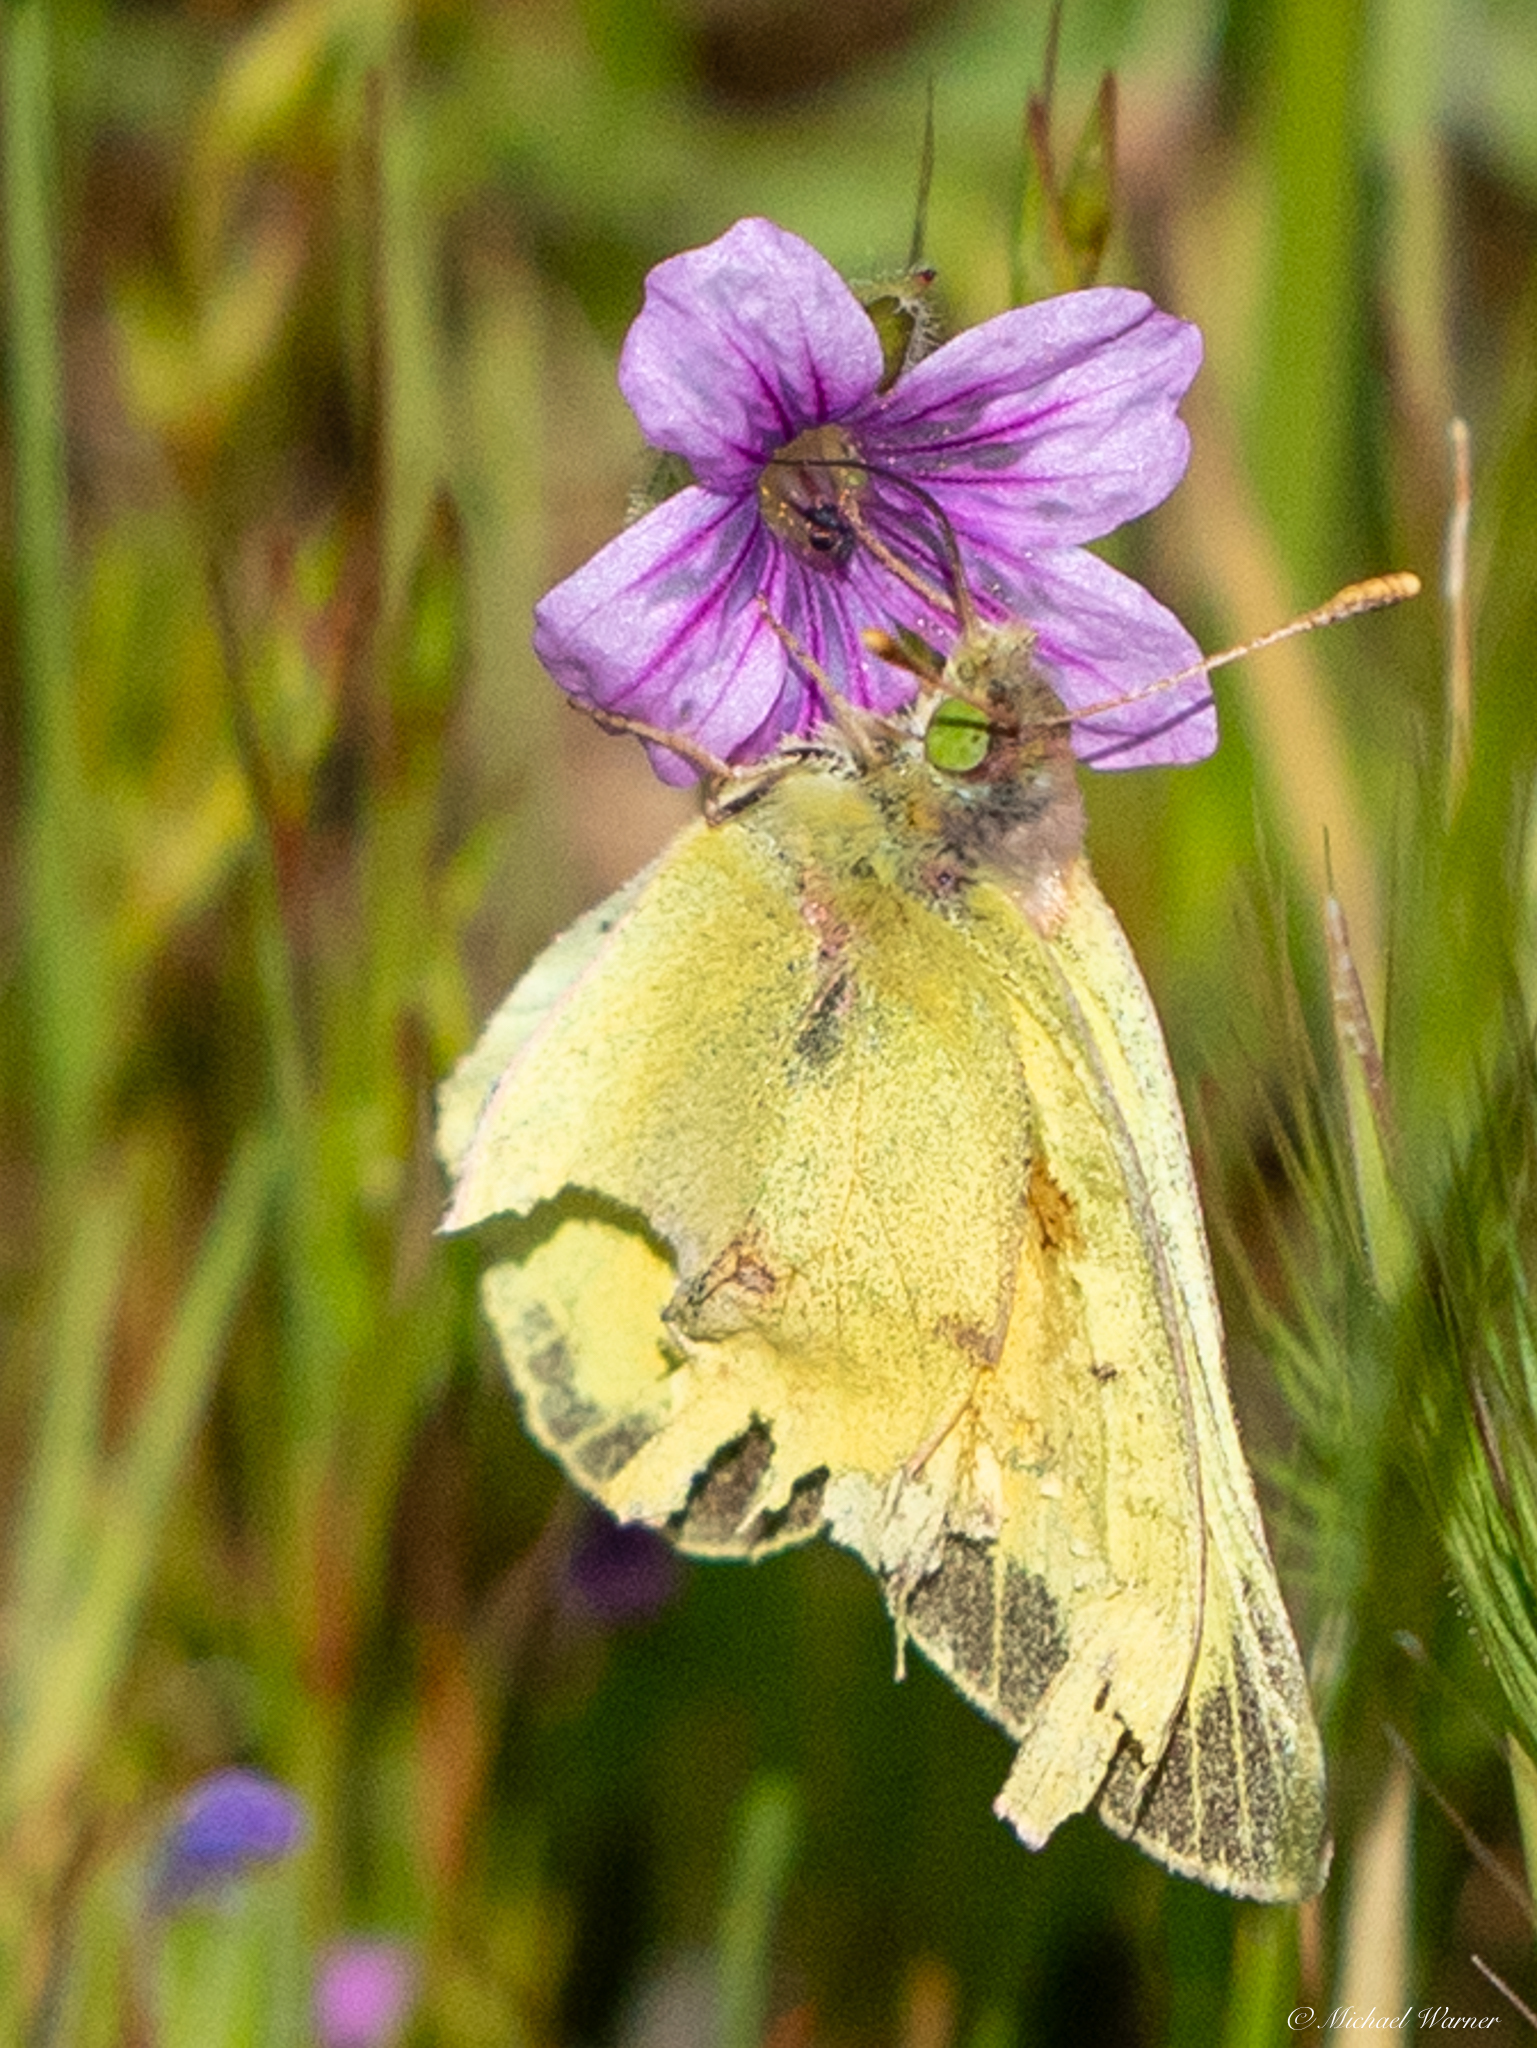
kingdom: Animalia
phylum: Arthropoda
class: Insecta
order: Lepidoptera
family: Pieridae
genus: Colias
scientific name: Colias eurytheme
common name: Alfalfa butterfly
